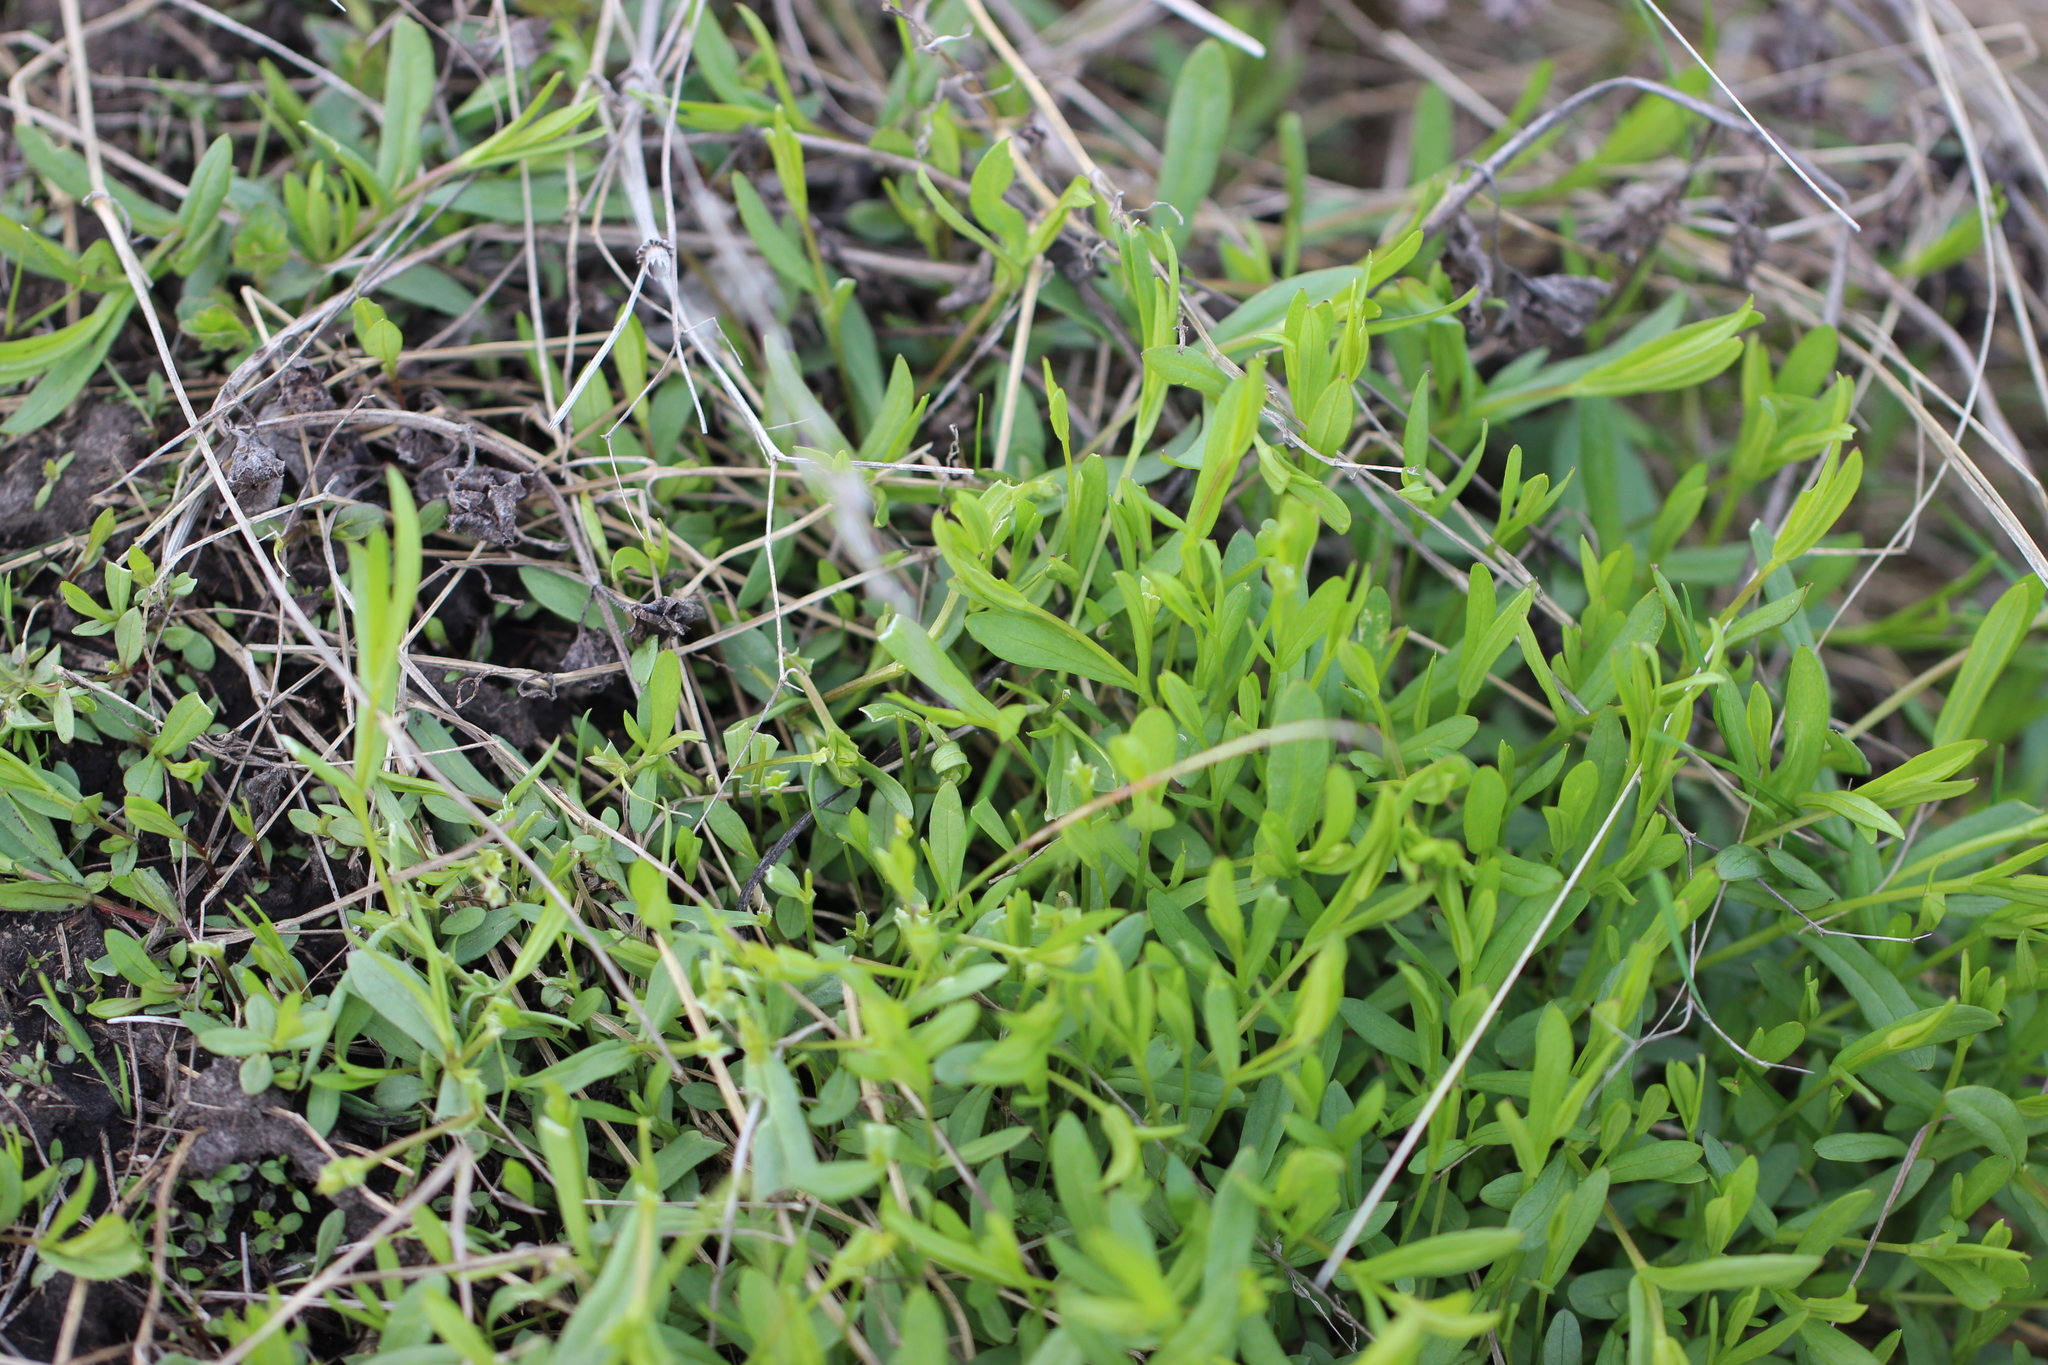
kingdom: Plantae
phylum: Tracheophyta
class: Magnoliopsida
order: Caryophyllales
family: Caryophyllaceae
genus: Stellaria
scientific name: Stellaria graminea
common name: Grass-like starwort
